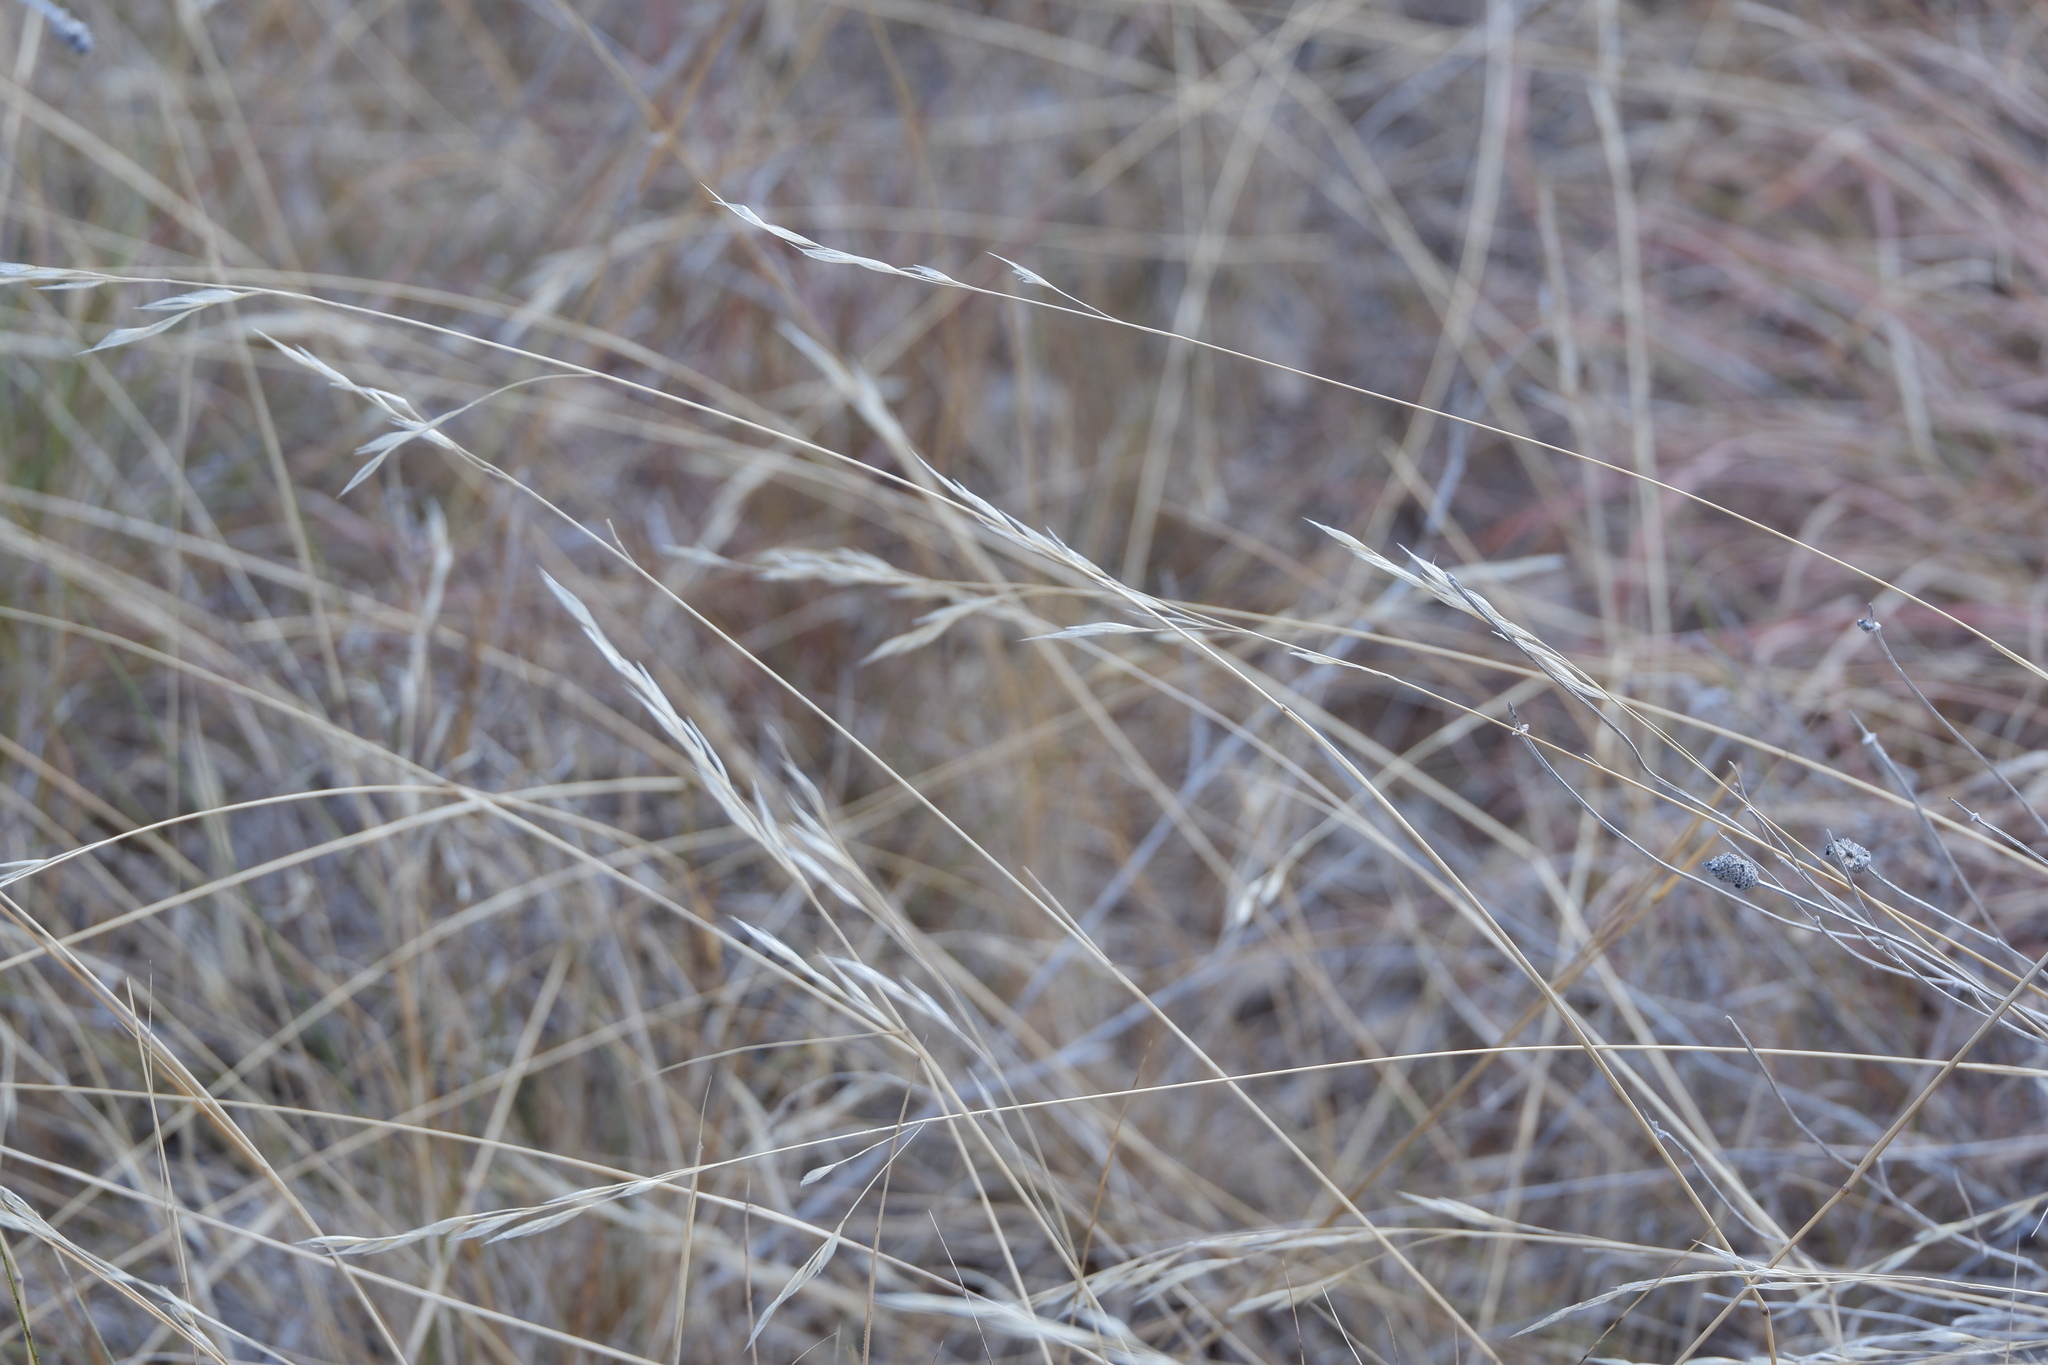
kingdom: Plantae
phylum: Tracheophyta
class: Liliopsida
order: Poales
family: Poaceae
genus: Nassella
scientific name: Nassella leucotricha
